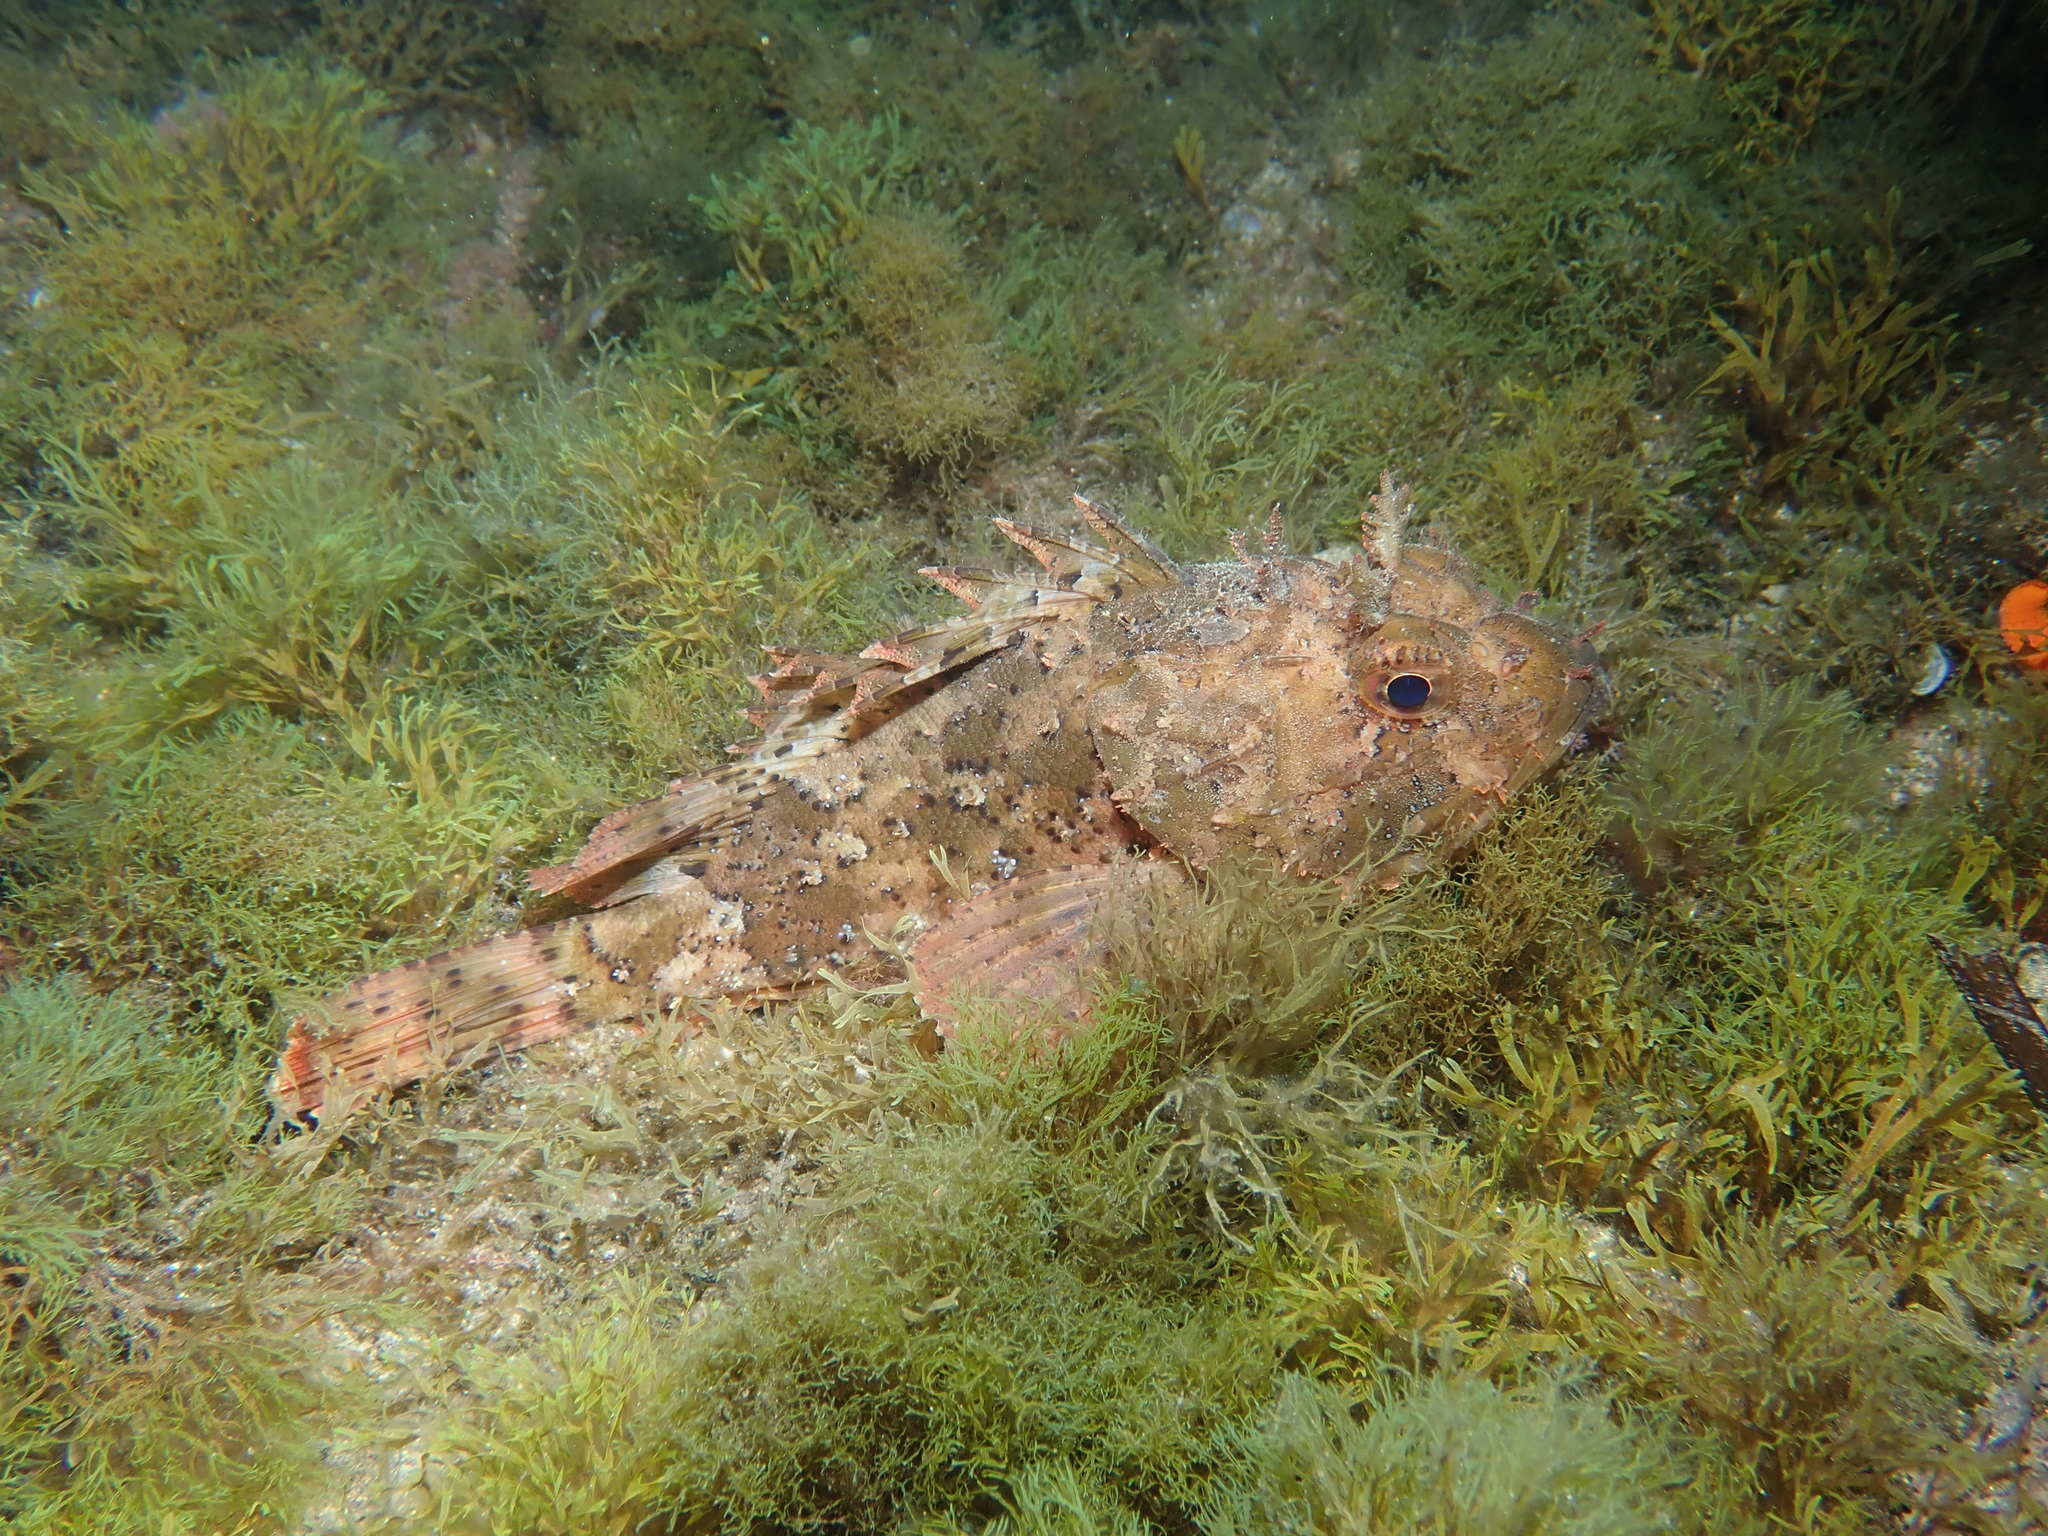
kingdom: Animalia
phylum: Chordata
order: Scorpaeniformes
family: Scorpaenidae
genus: Scorpaena
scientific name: Scorpaena porcus
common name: Black scorpionfish
